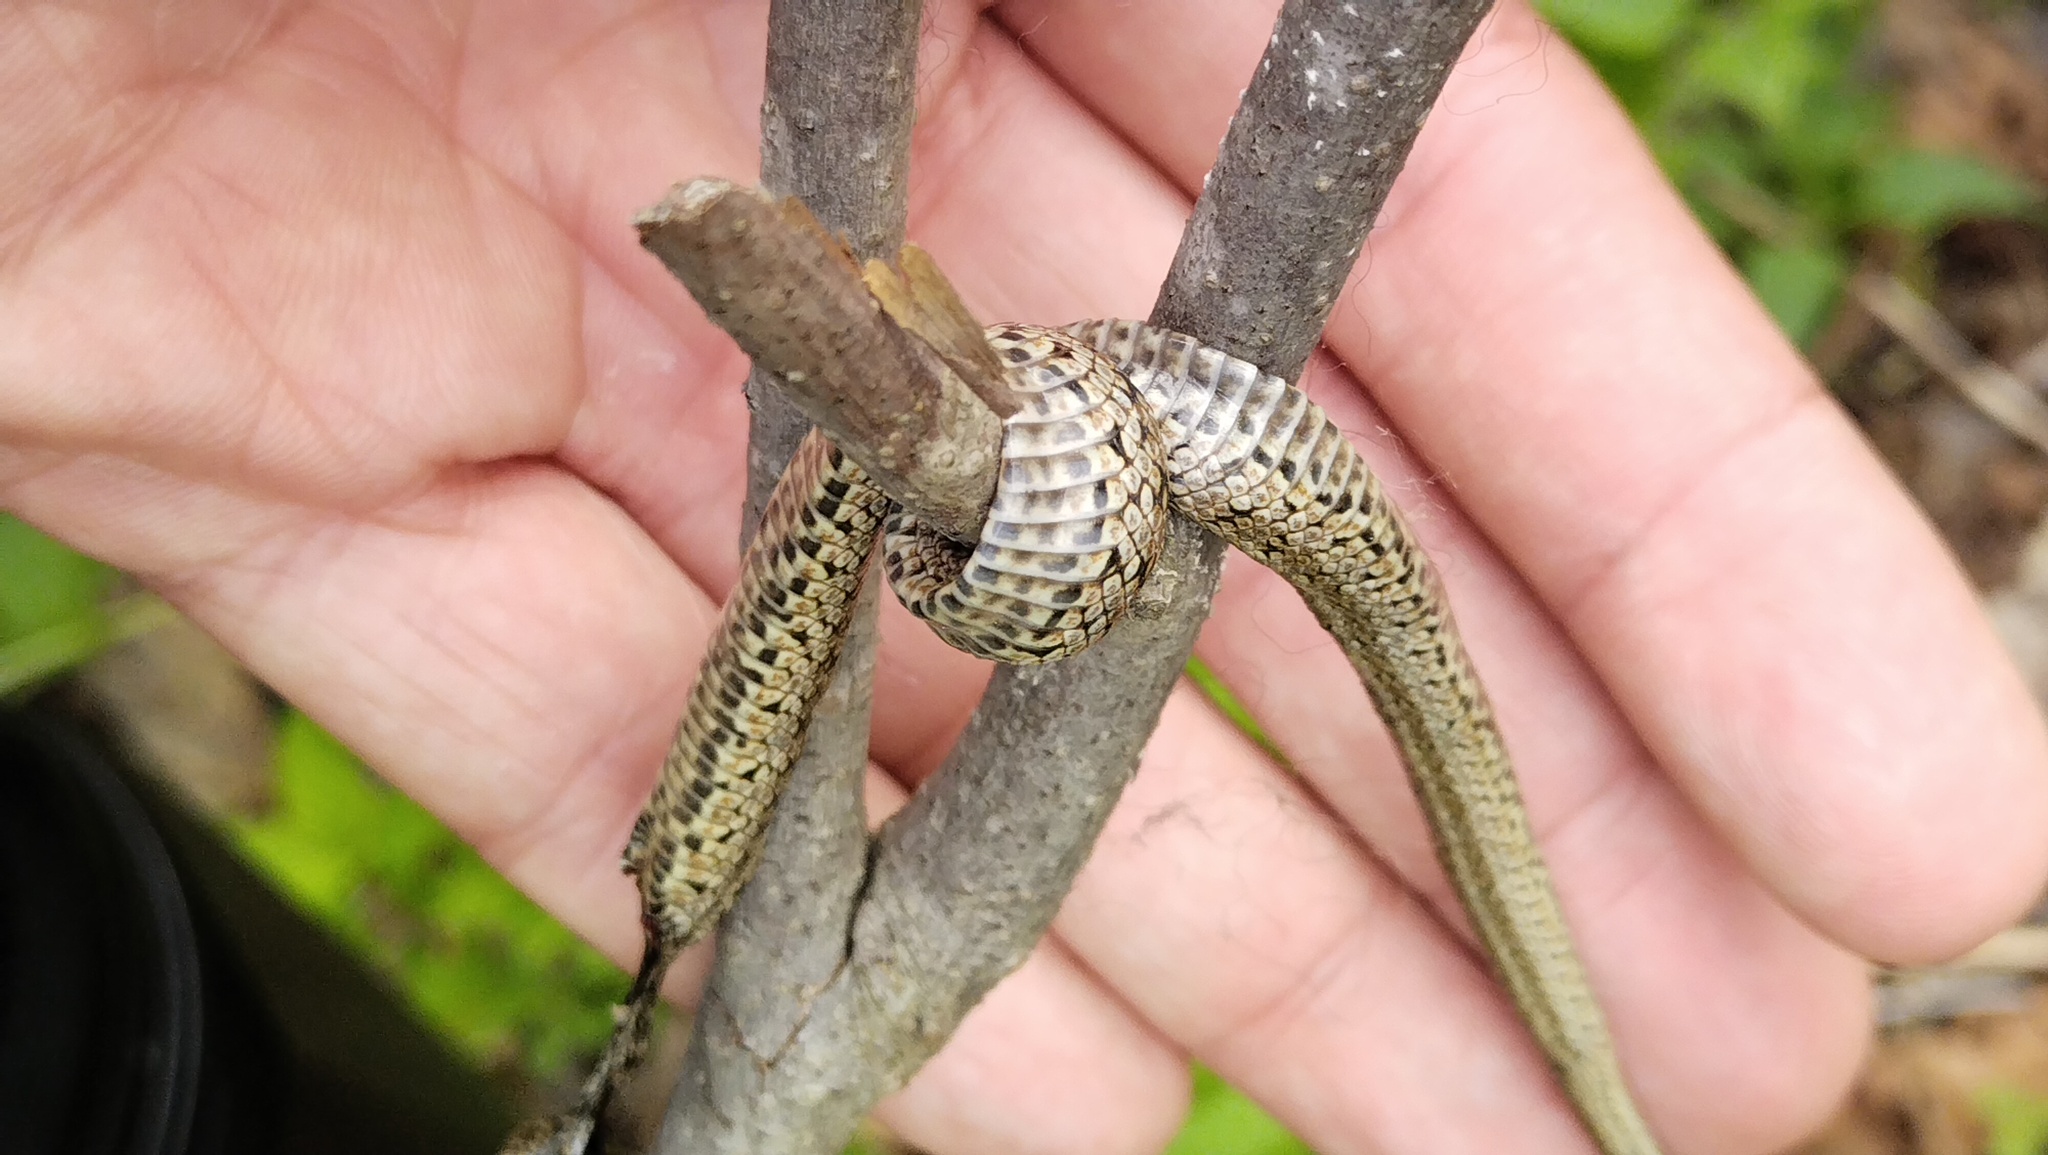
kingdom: Animalia
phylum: Chordata
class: Squamata
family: Colubridae
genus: Elaphe
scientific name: Elaphe dione
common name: Dione ratsnake
